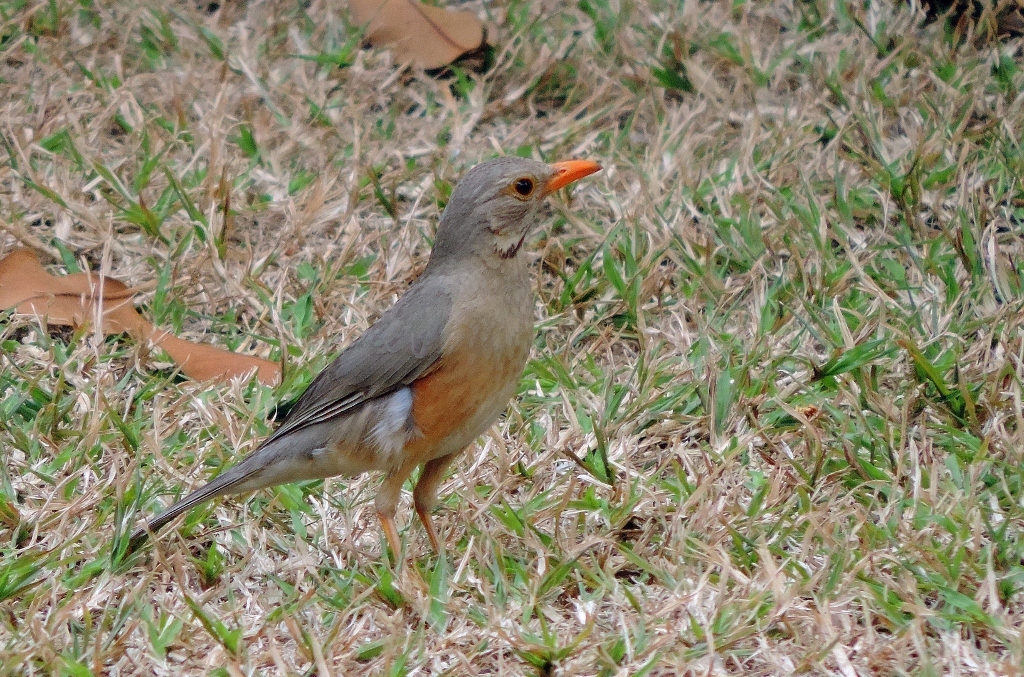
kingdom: Animalia
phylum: Chordata
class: Aves
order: Passeriformes
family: Turdidae
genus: Turdus
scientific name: Turdus libonyana
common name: Kurrichane thrush
